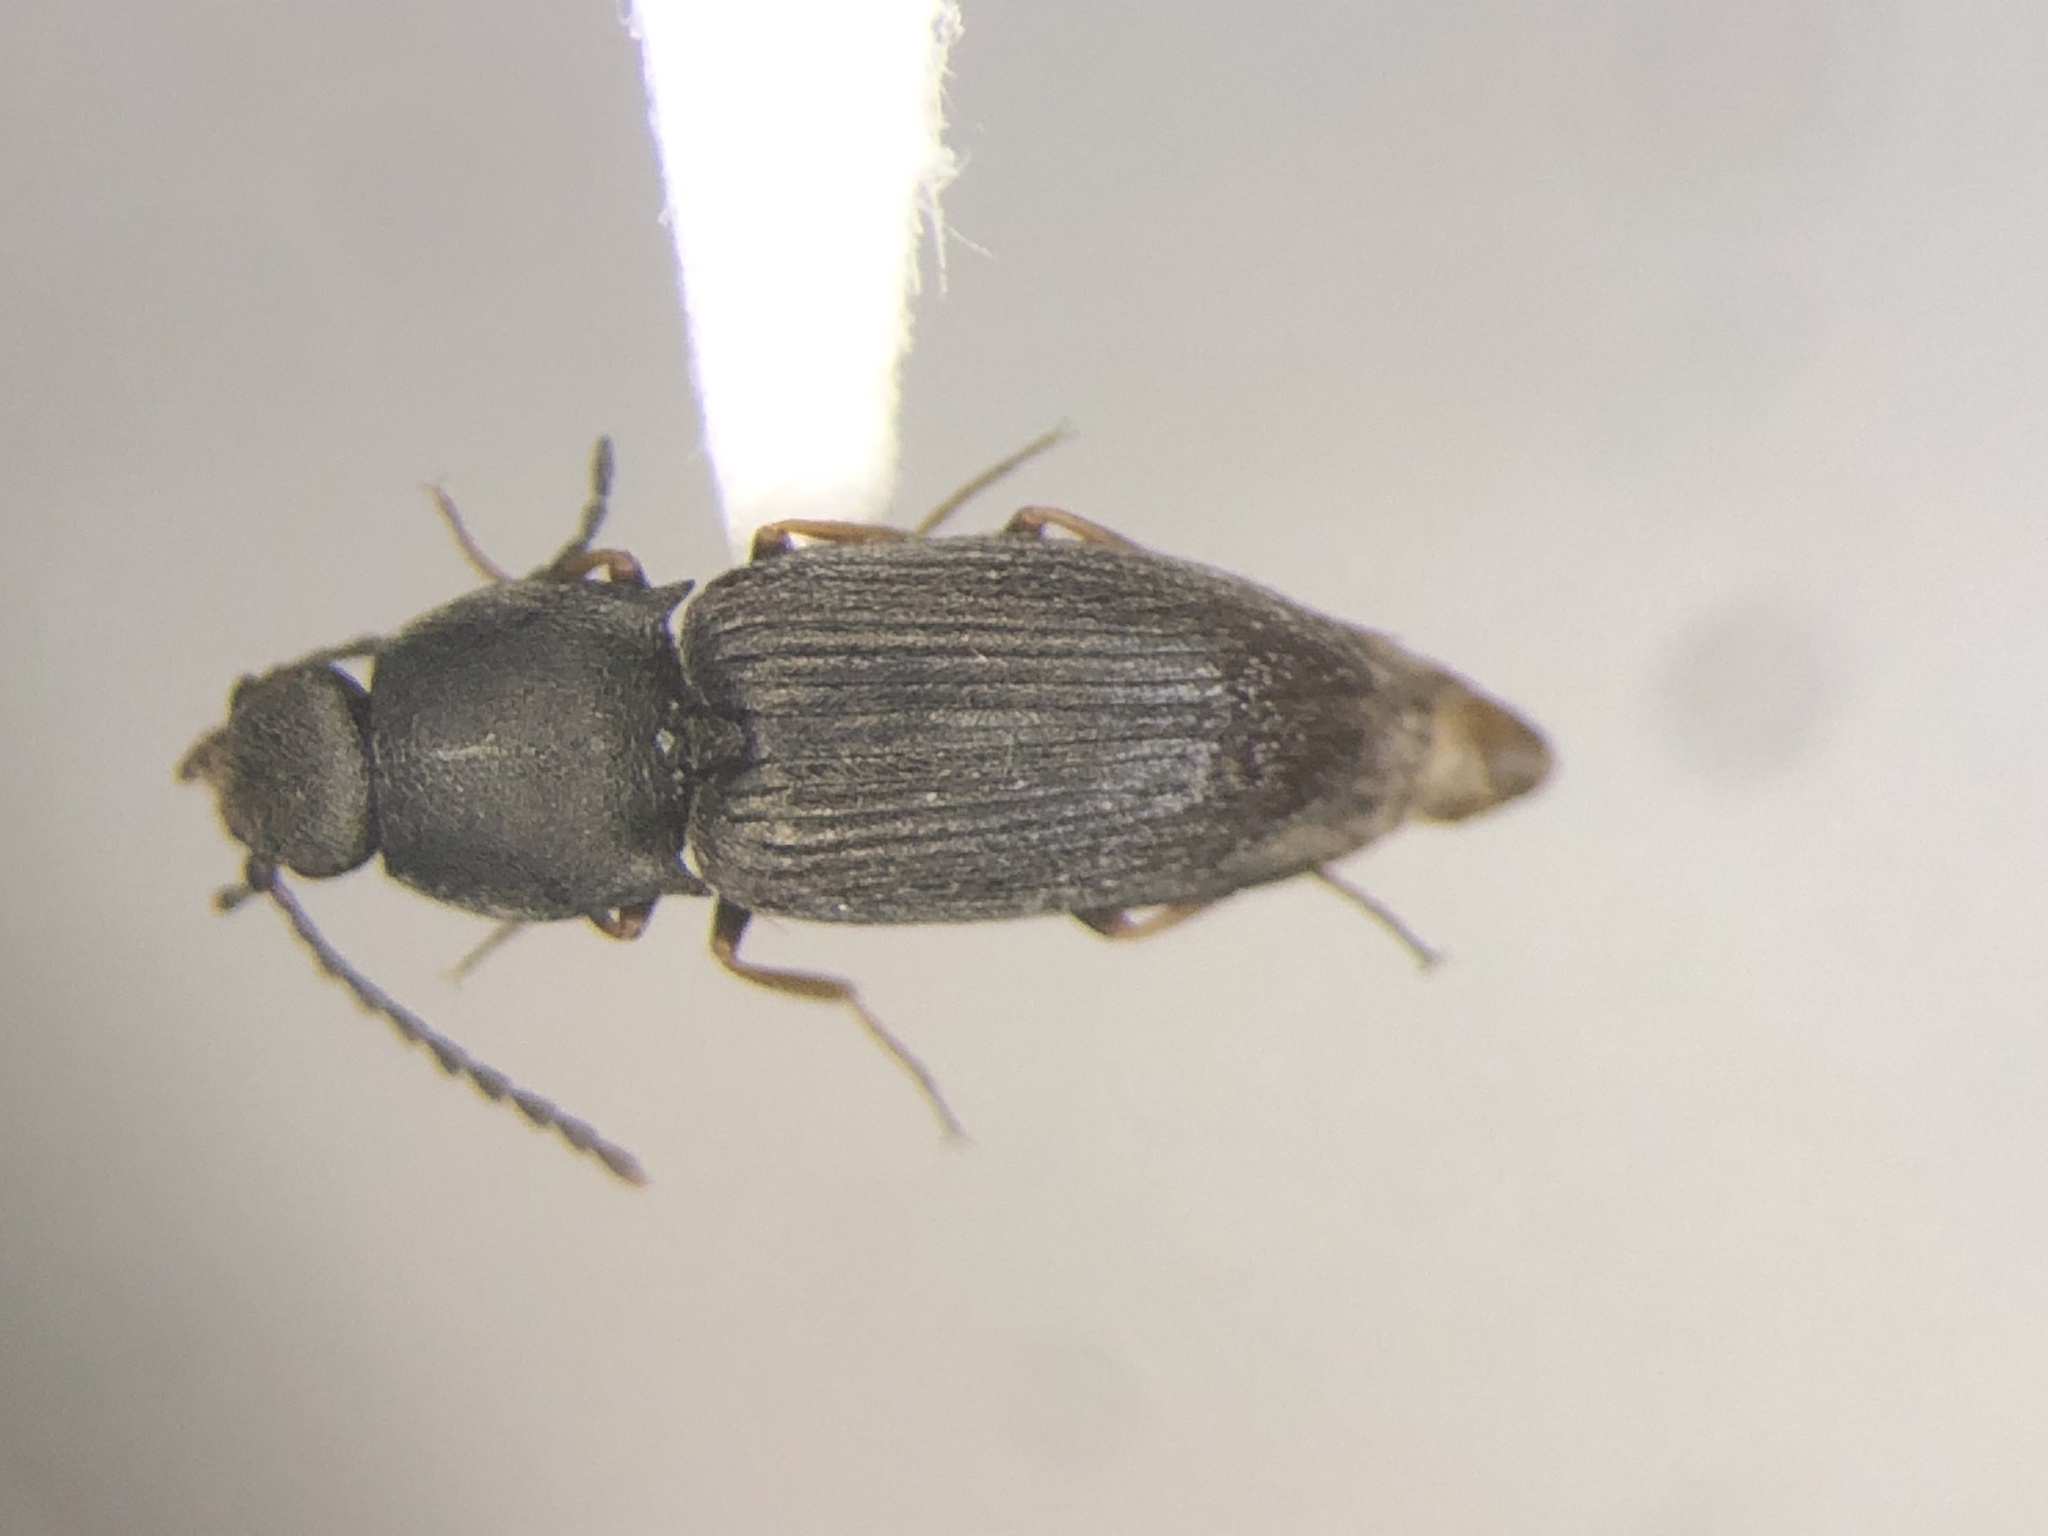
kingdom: Animalia
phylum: Arthropoda
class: Insecta
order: Coleoptera
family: Elateridae
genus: Microhypnus
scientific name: Microhypnus striatulus
